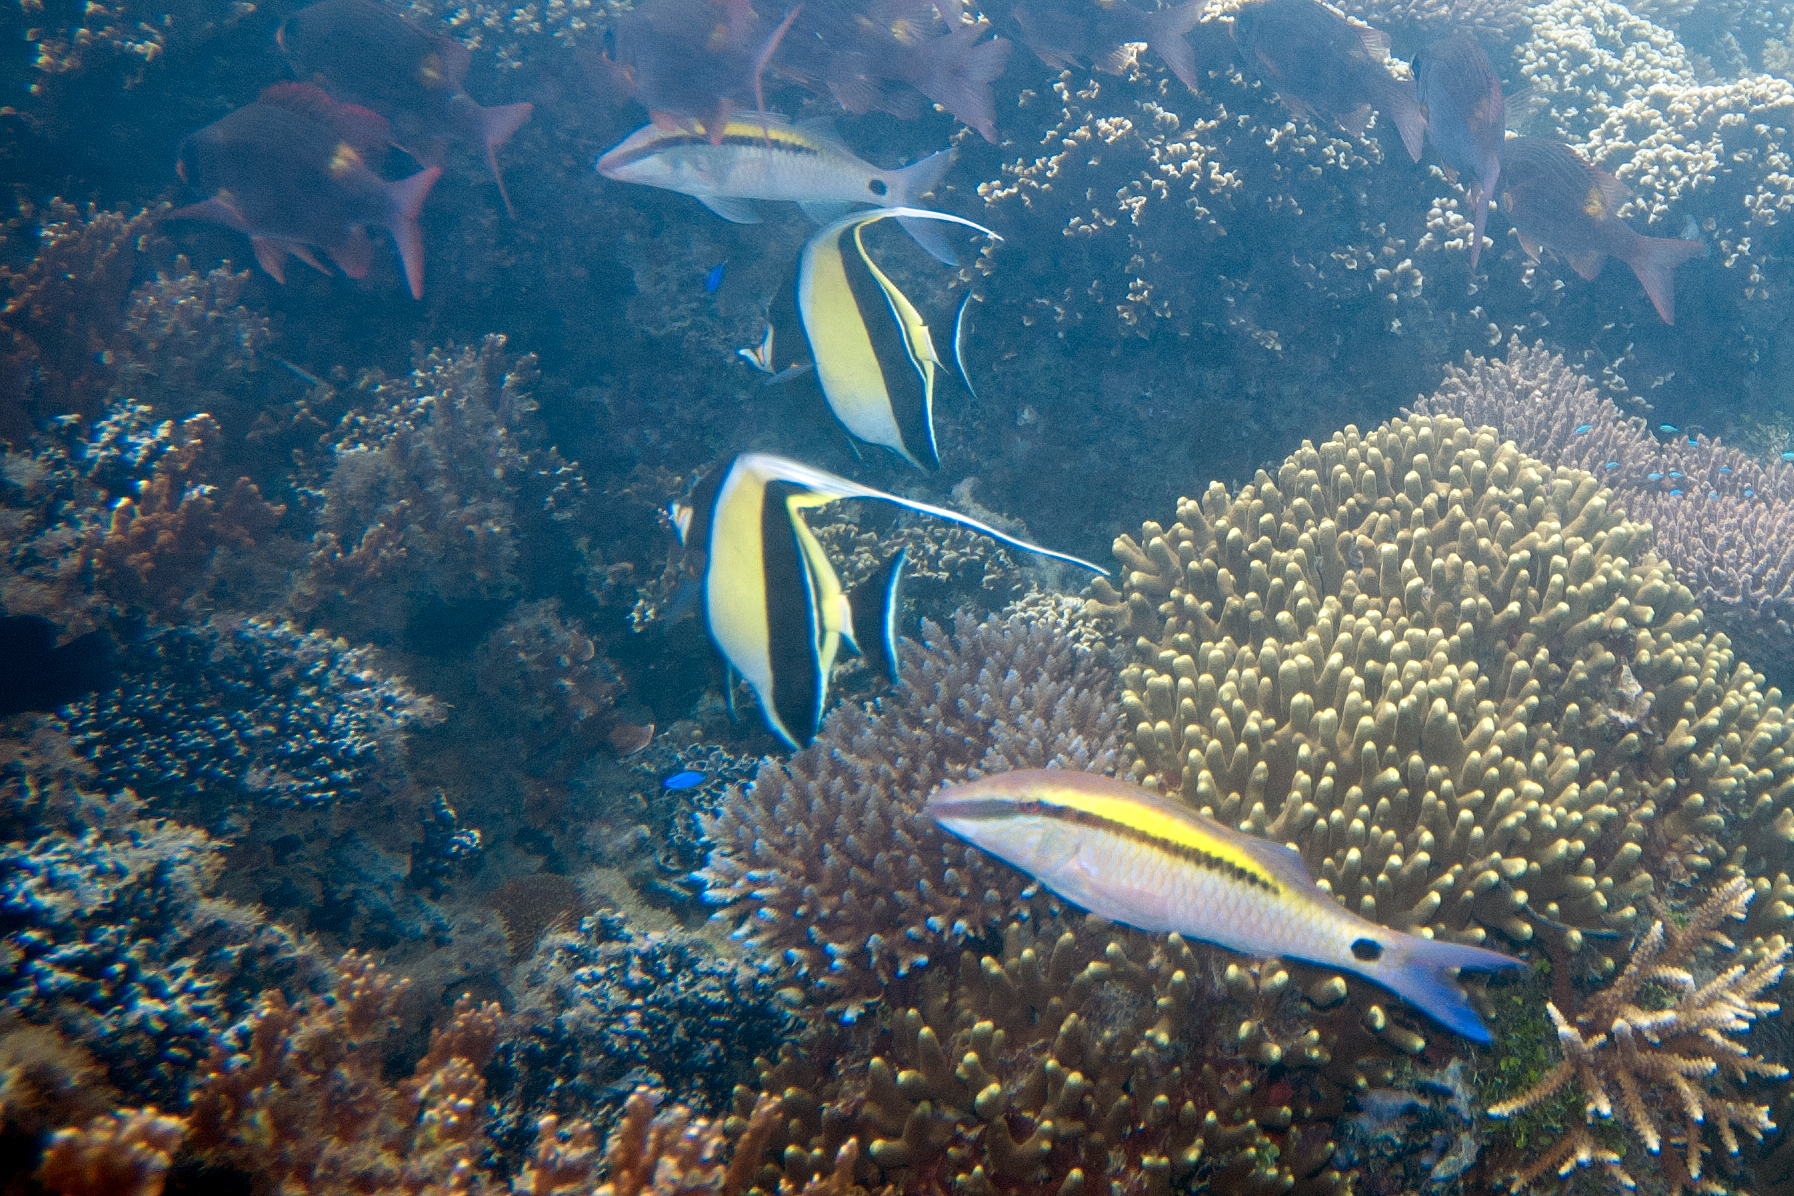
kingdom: Animalia
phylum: Chordata
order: Perciformes
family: Mullidae
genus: Parupeneus
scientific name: Parupeneus barberinus
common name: Dash-and-dot goatfish
